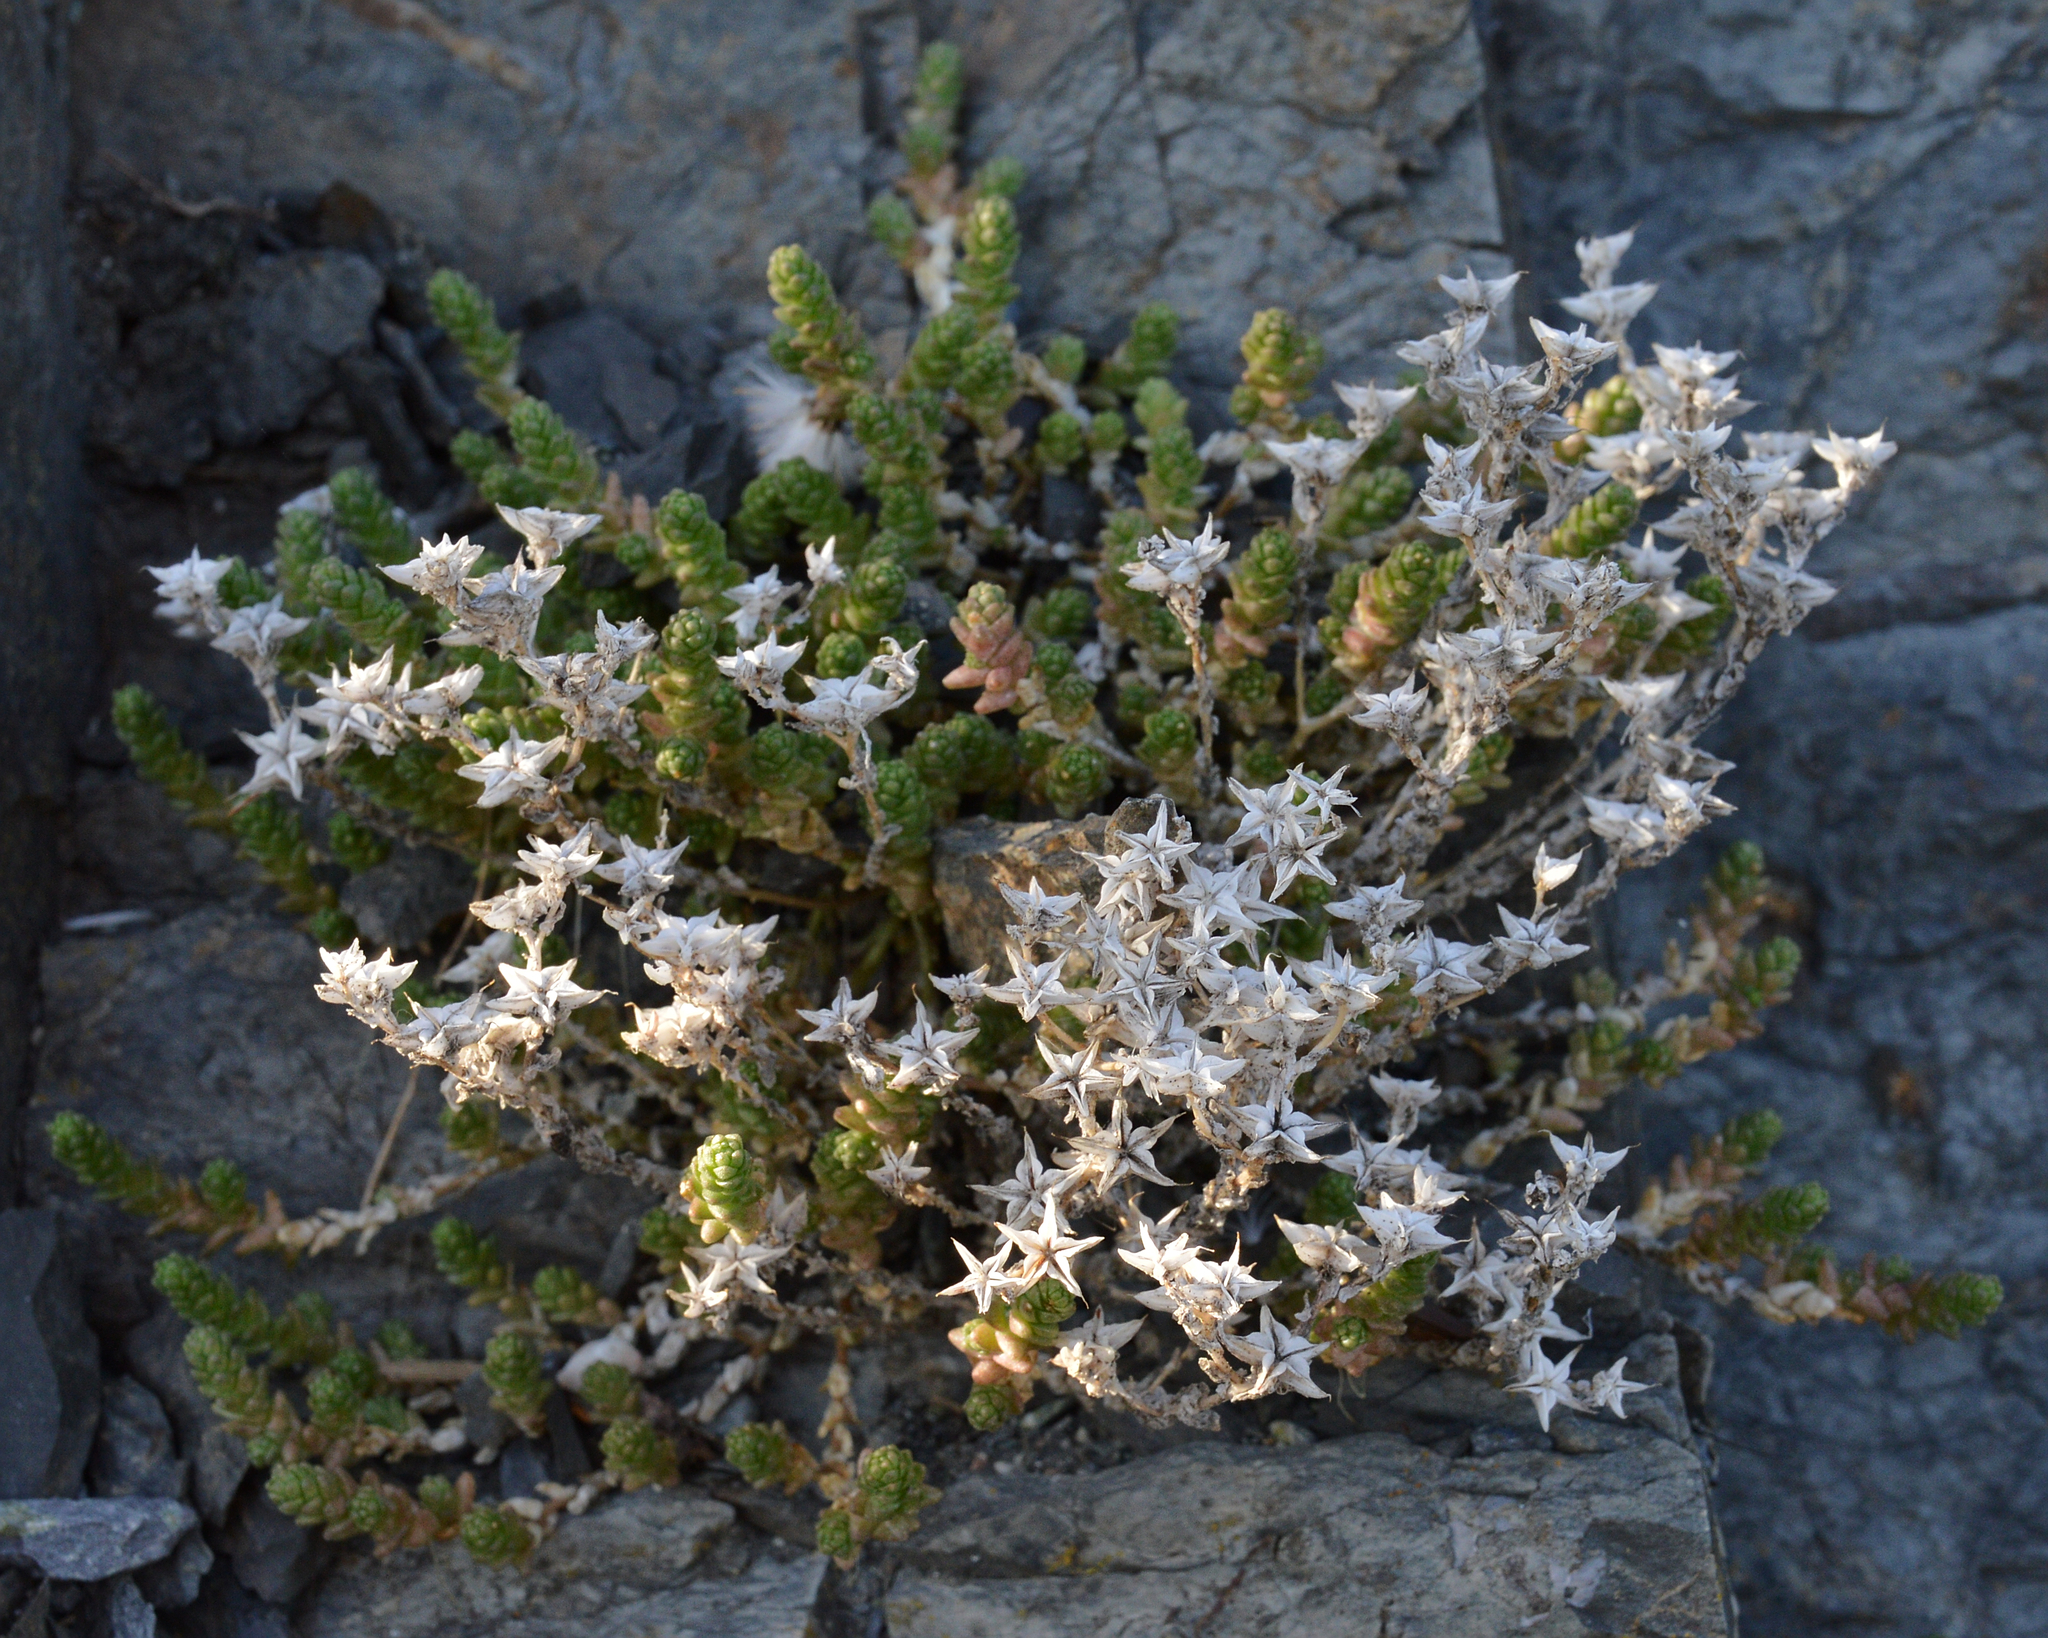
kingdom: Plantae
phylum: Tracheophyta
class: Magnoliopsida
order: Saxifragales
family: Crassulaceae
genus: Sedum
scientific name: Sedum acre
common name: Biting stonecrop
